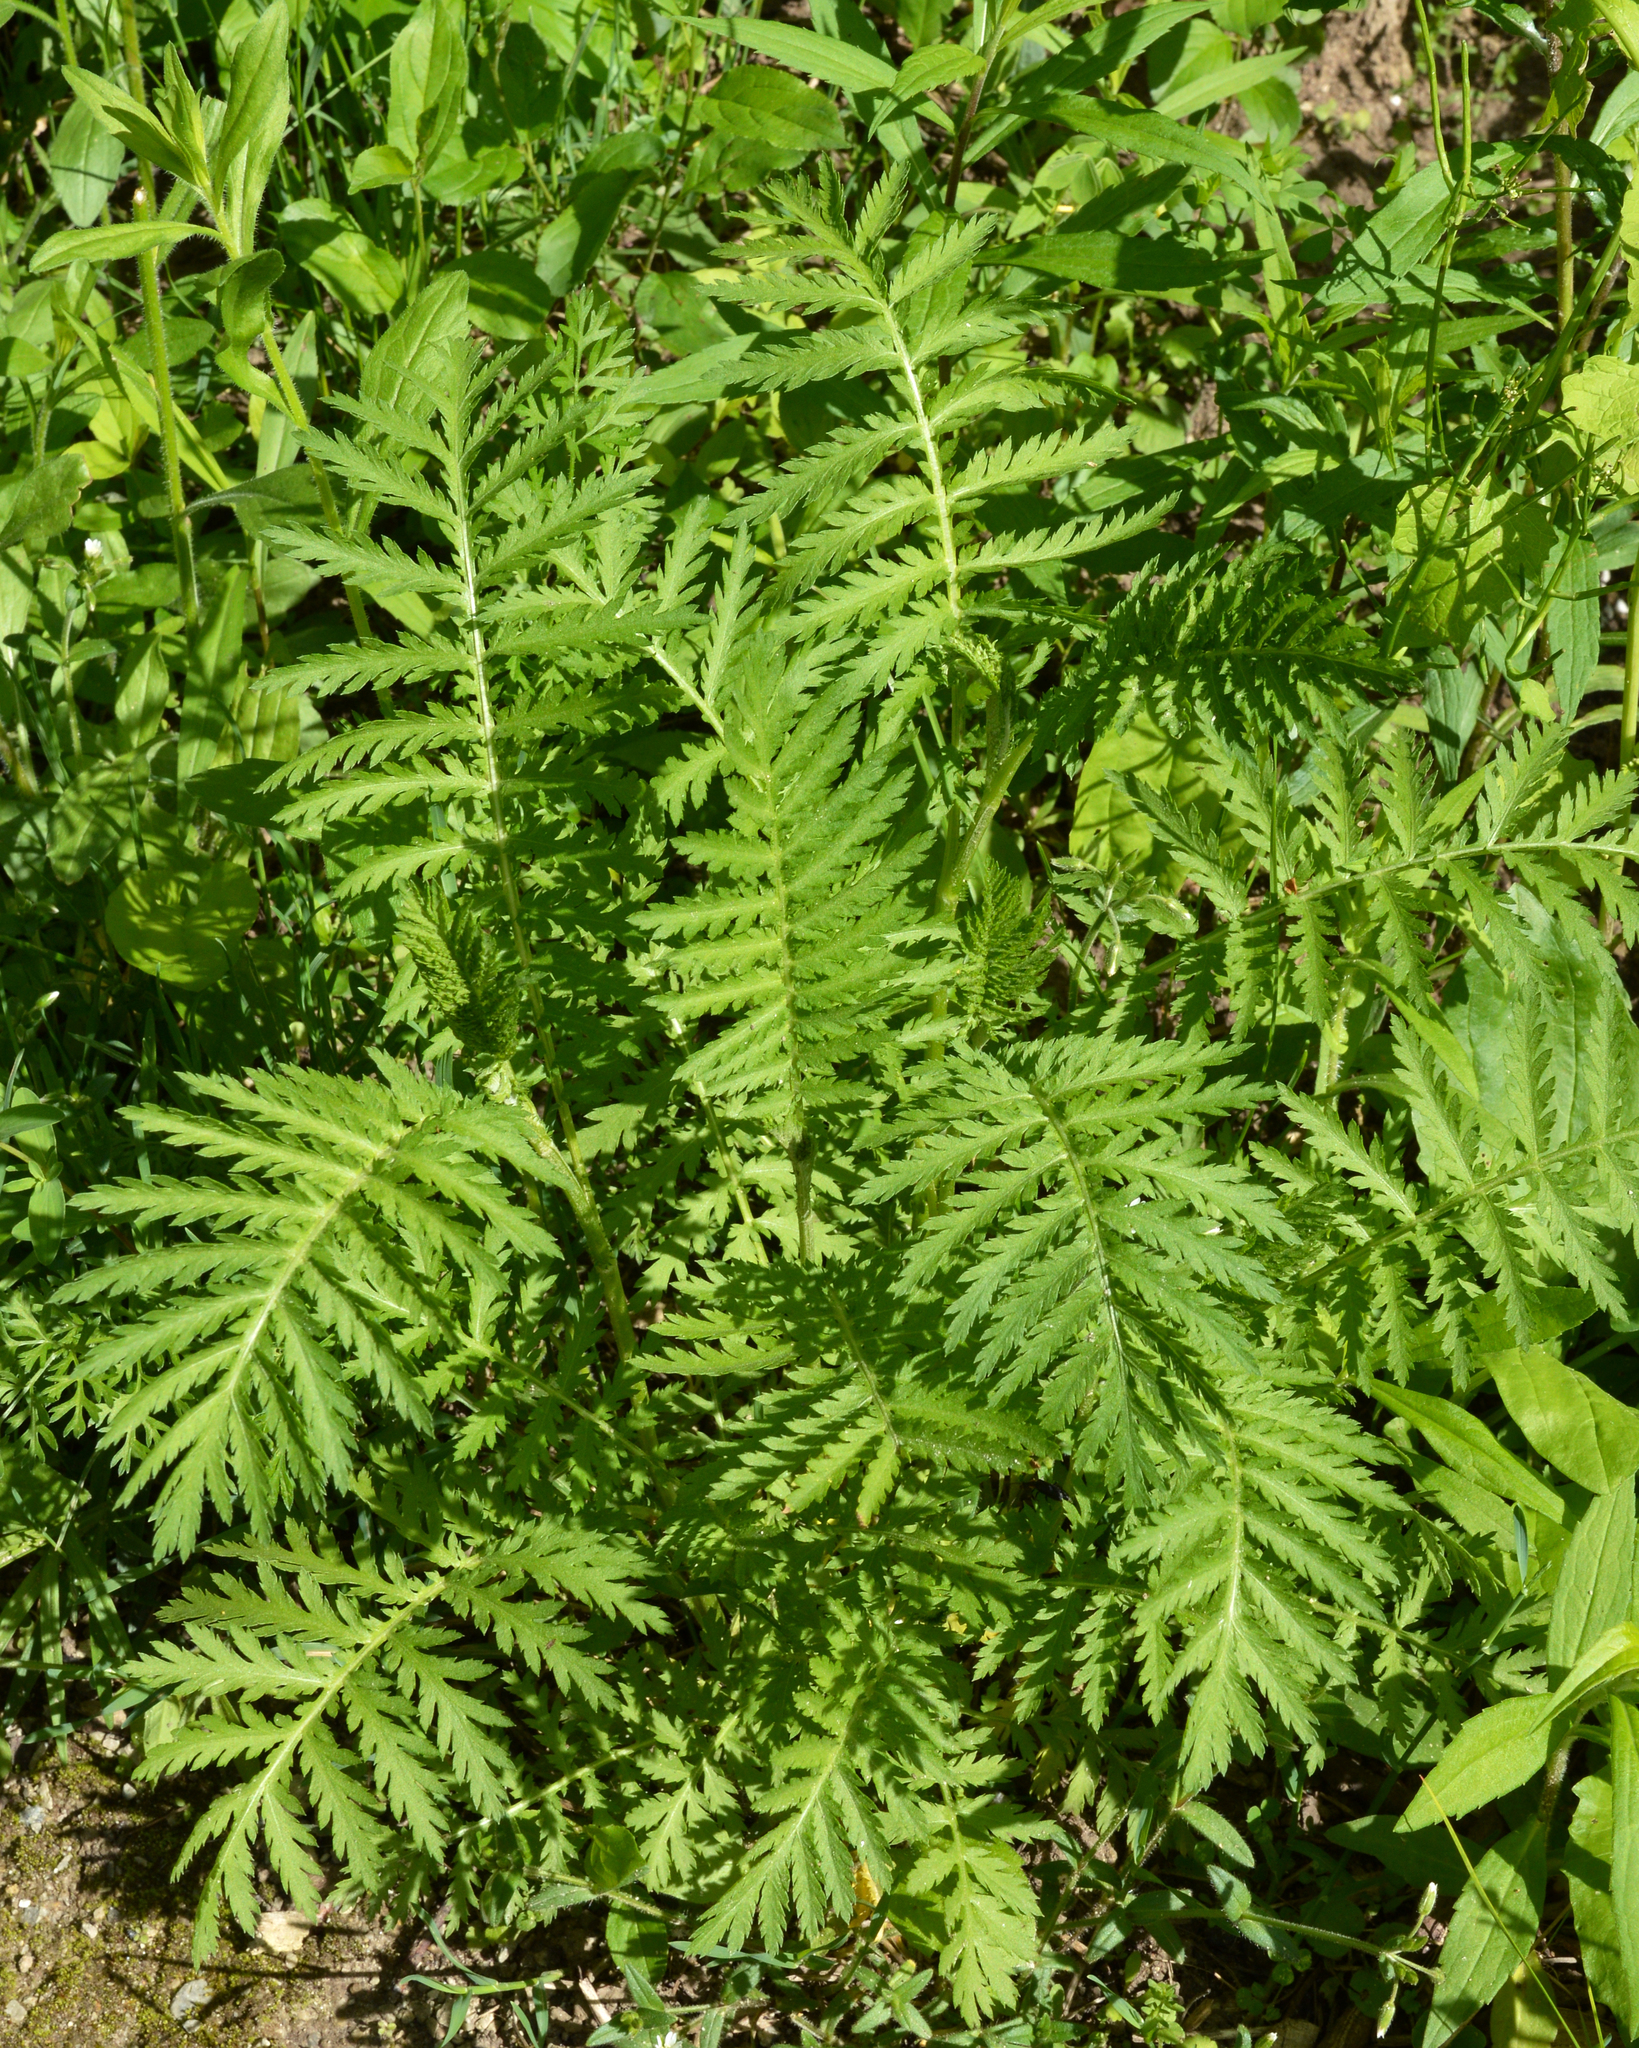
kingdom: Plantae
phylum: Tracheophyta
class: Magnoliopsida
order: Asterales
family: Asteraceae
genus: Tanacetum
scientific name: Tanacetum vulgare
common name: Common tansy
